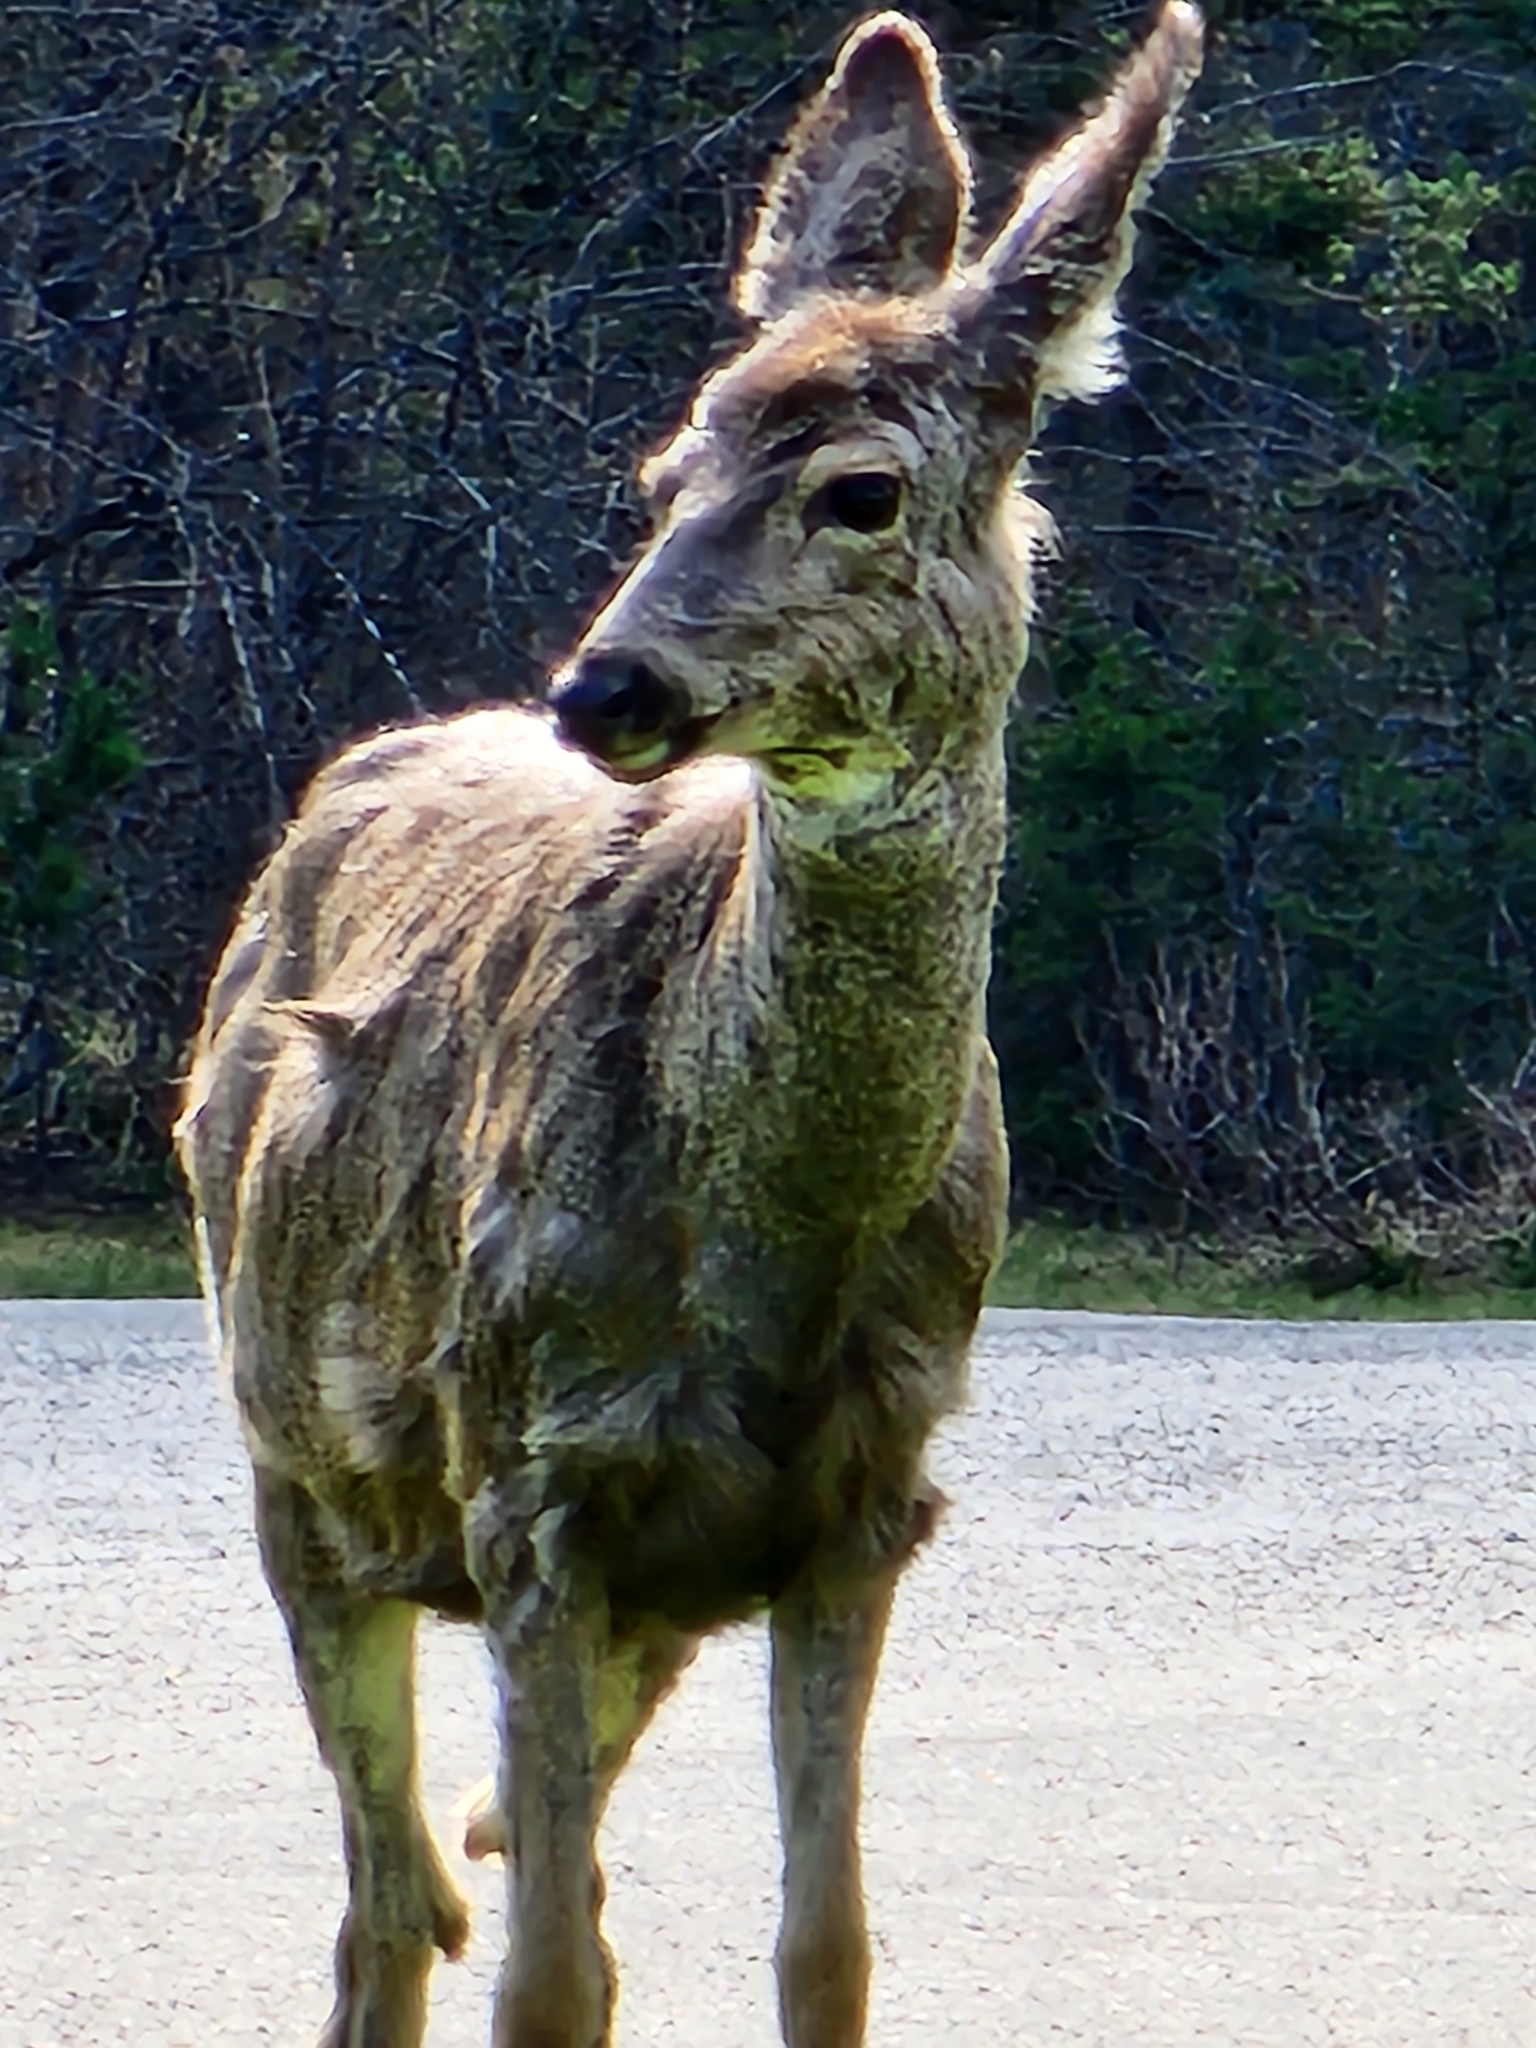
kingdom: Animalia
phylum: Chordata
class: Mammalia
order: Artiodactyla
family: Cervidae
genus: Odocoileus
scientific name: Odocoileus hemionus
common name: Mule deer
